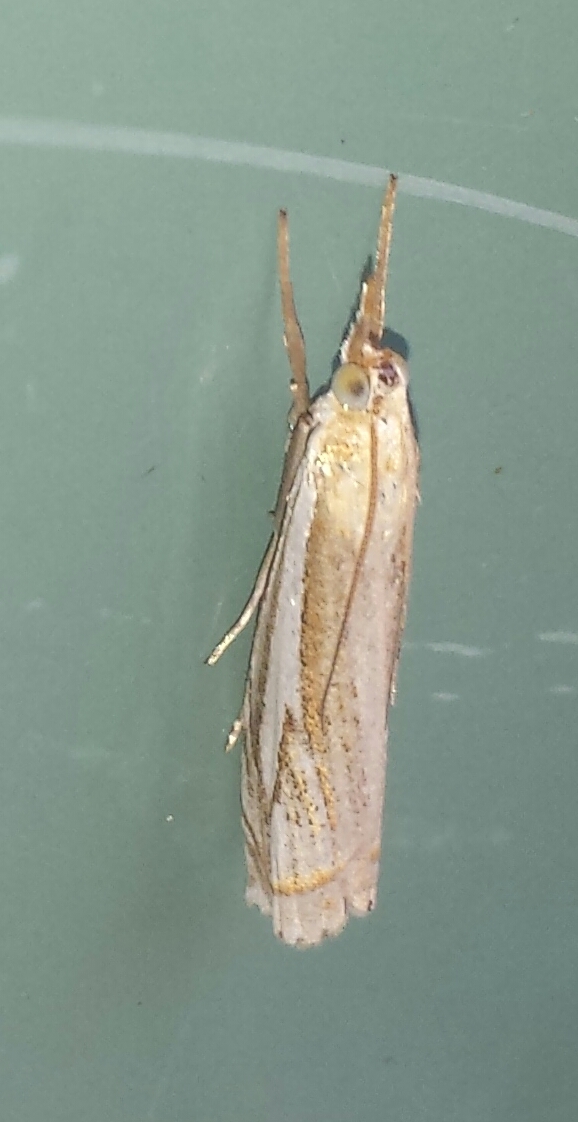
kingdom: Animalia
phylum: Arthropoda
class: Insecta
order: Lepidoptera
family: Crambidae
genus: Crambus
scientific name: Crambus saltuellus
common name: Pasture grass-veneer
